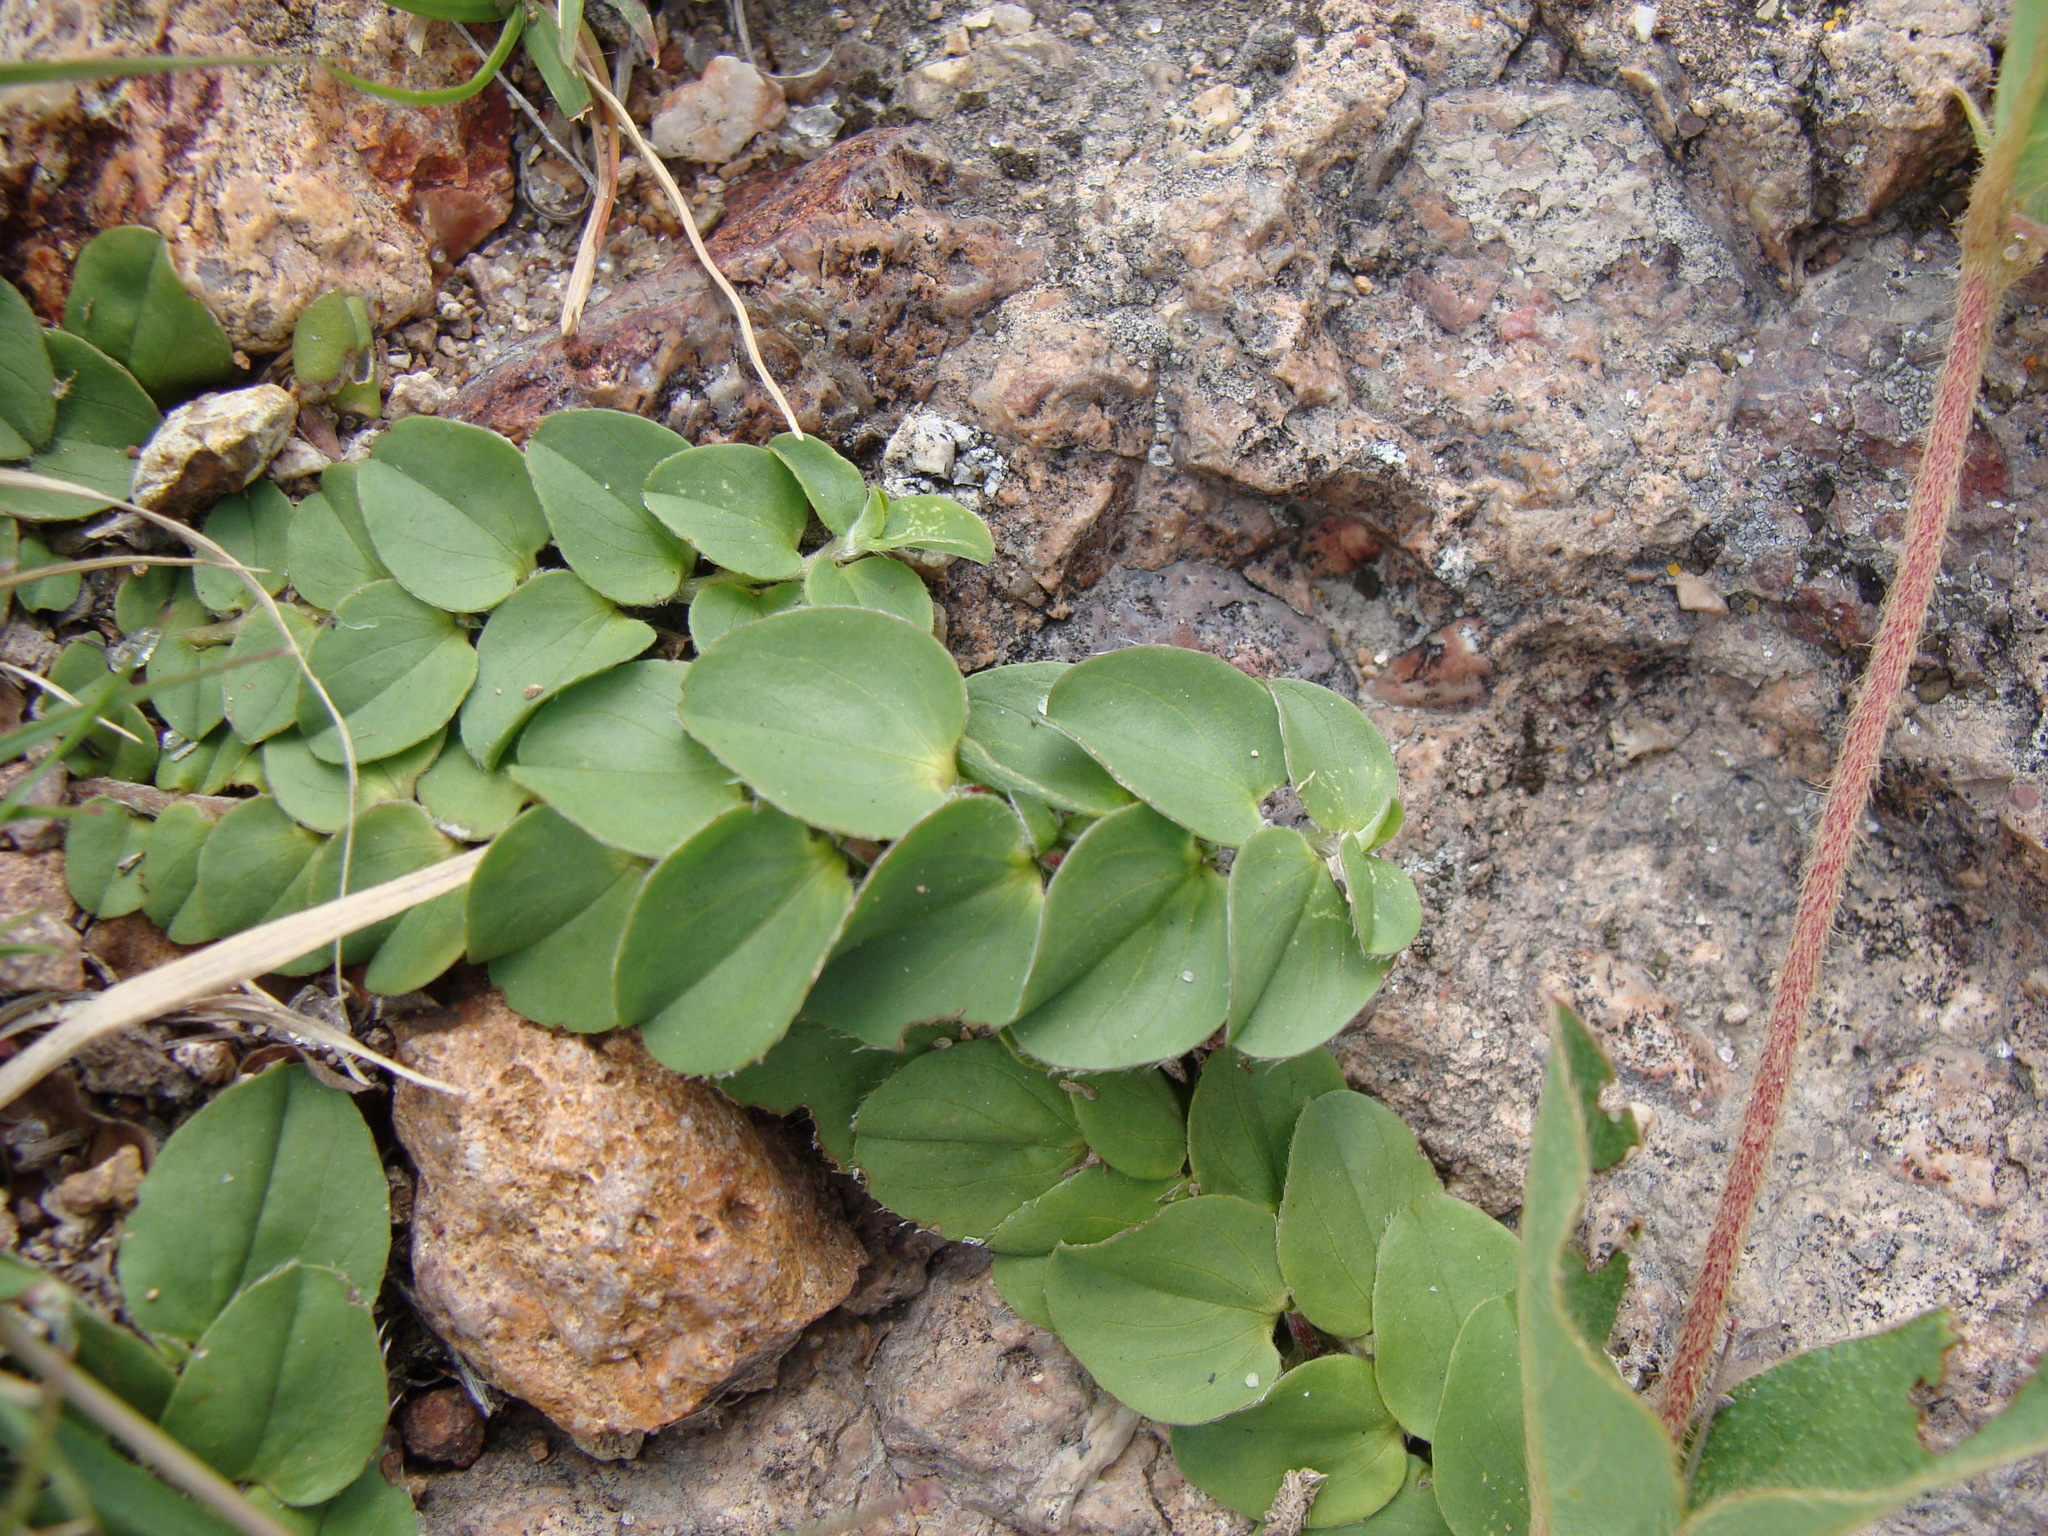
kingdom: Plantae
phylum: Tracheophyta
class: Magnoliopsida
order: Solanales
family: Convolvulaceae
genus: Evolvulus
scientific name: Evolvulus prostratus
